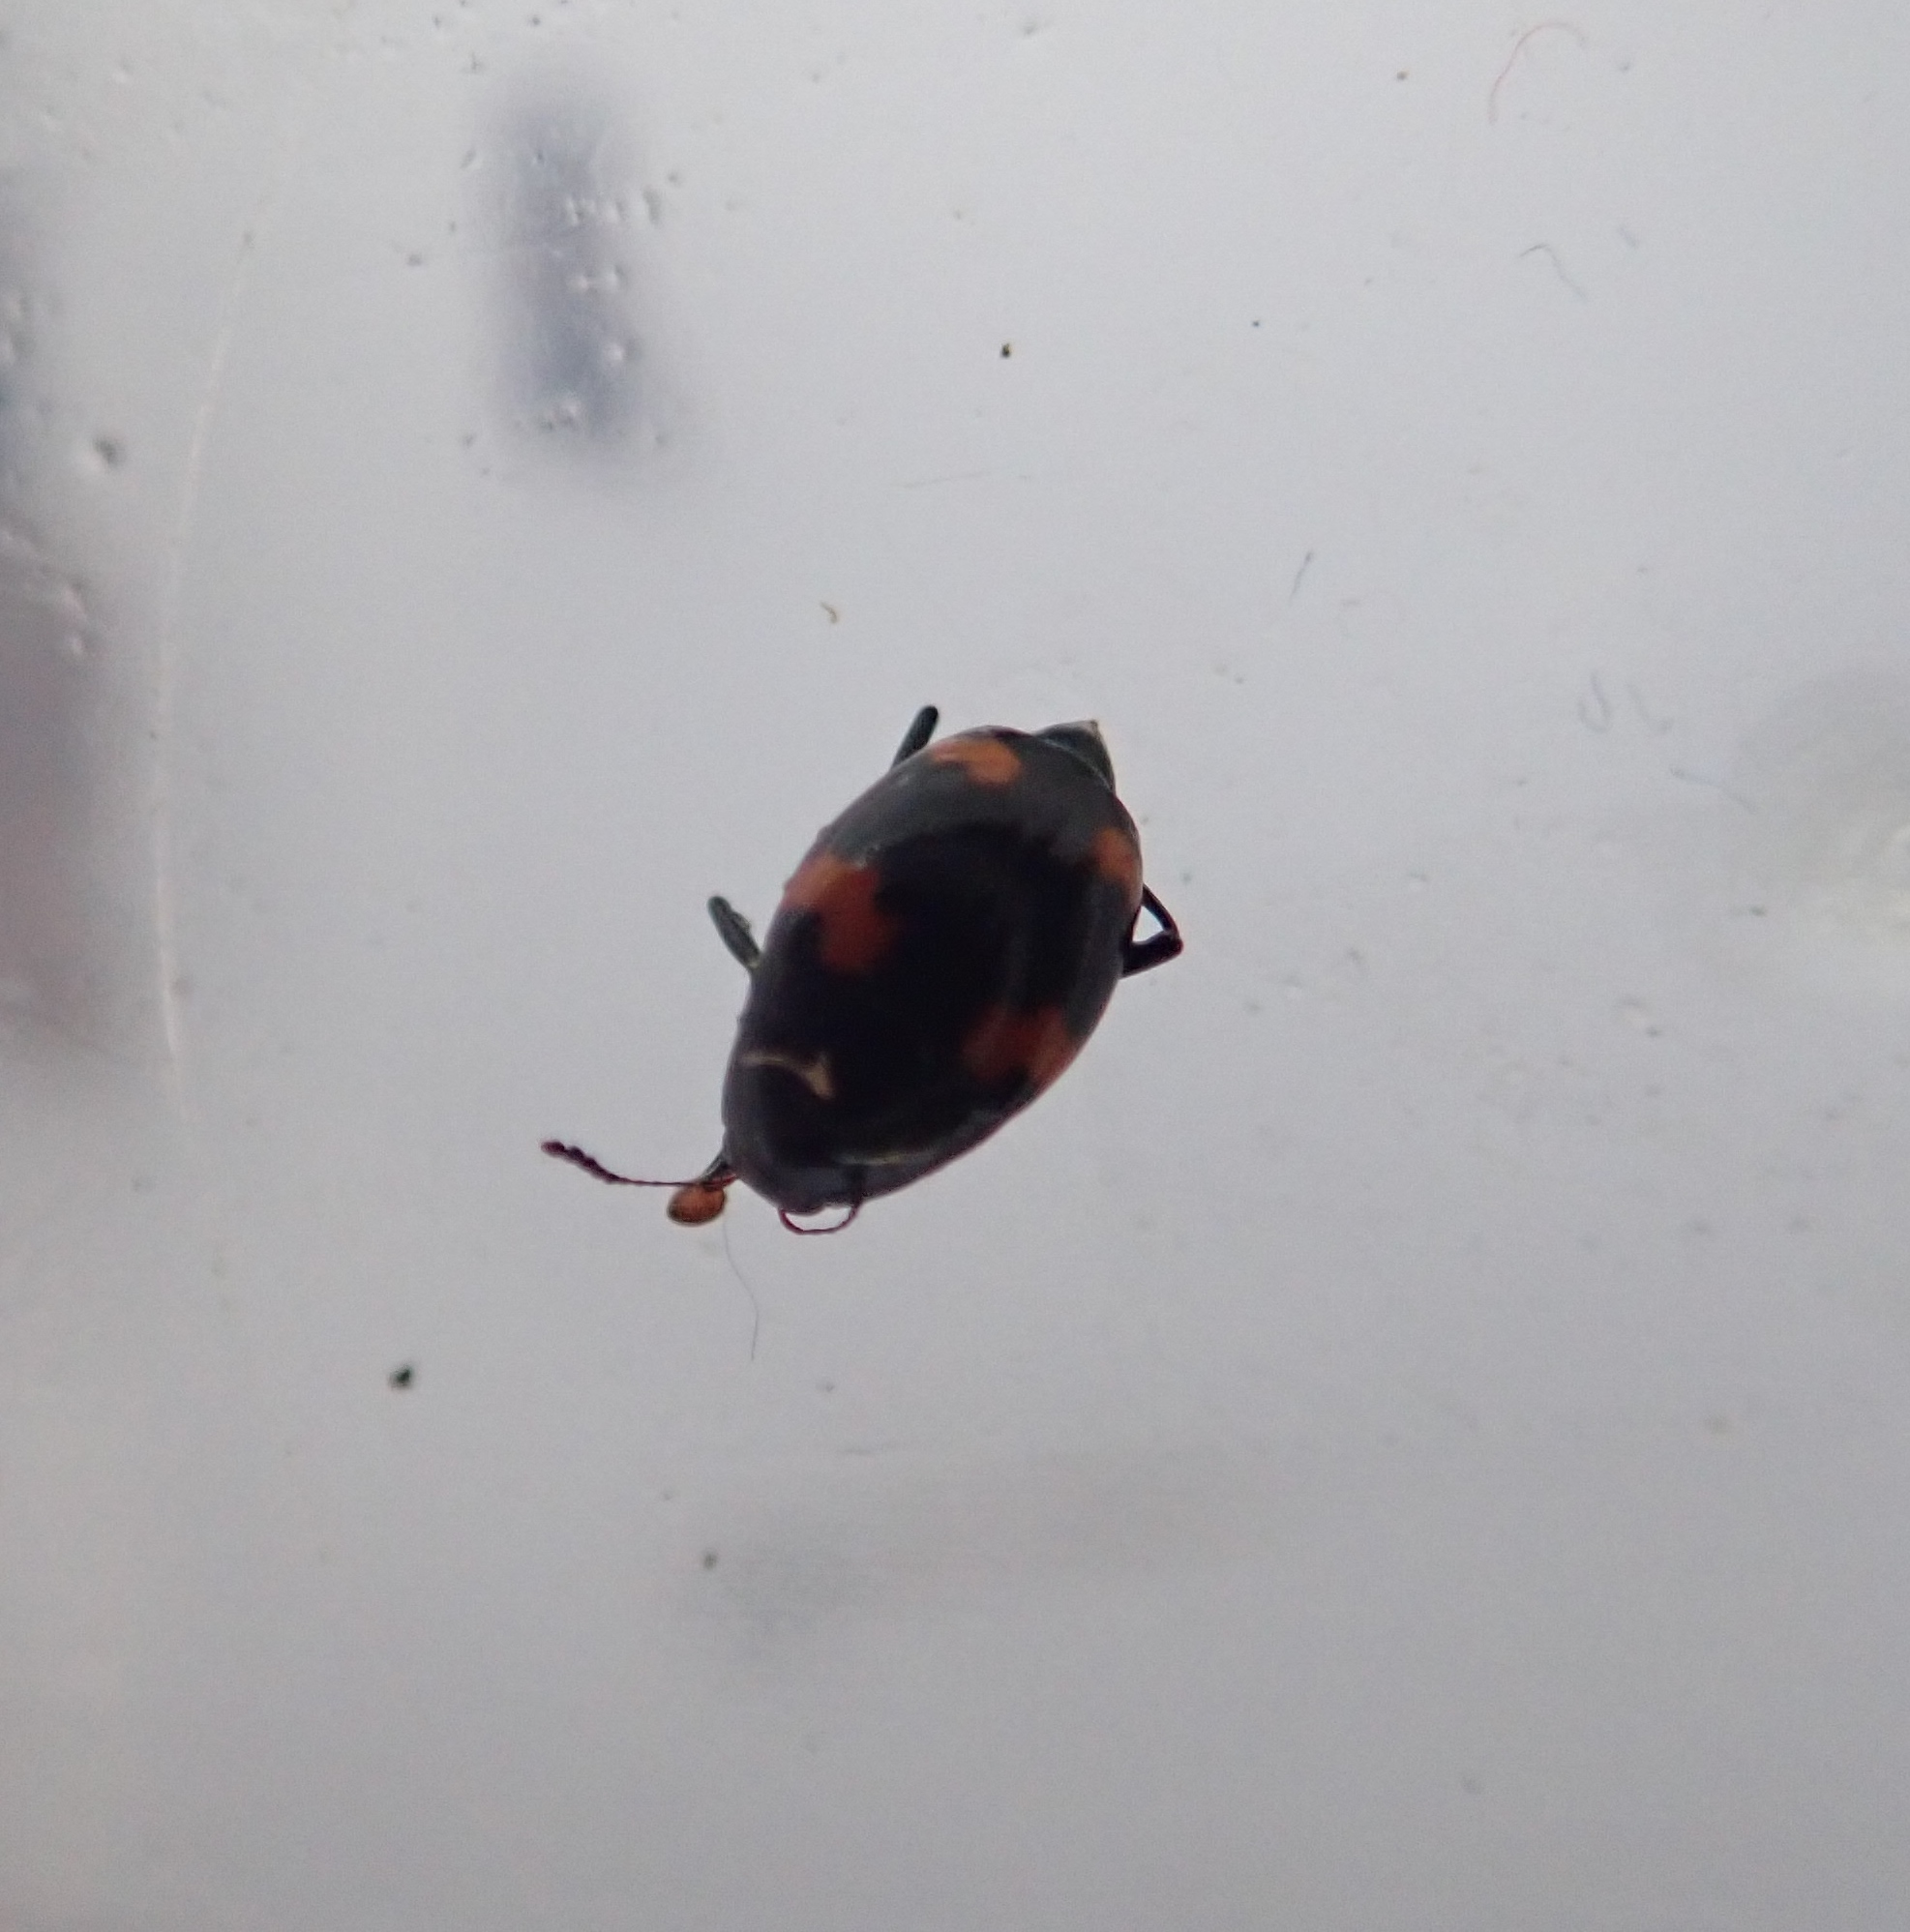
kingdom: Animalia
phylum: Arthropoda
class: Insecta
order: Coleoptera
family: Staphylinidae
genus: Scaphidium
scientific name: Scaphidium quadrimaculatum
